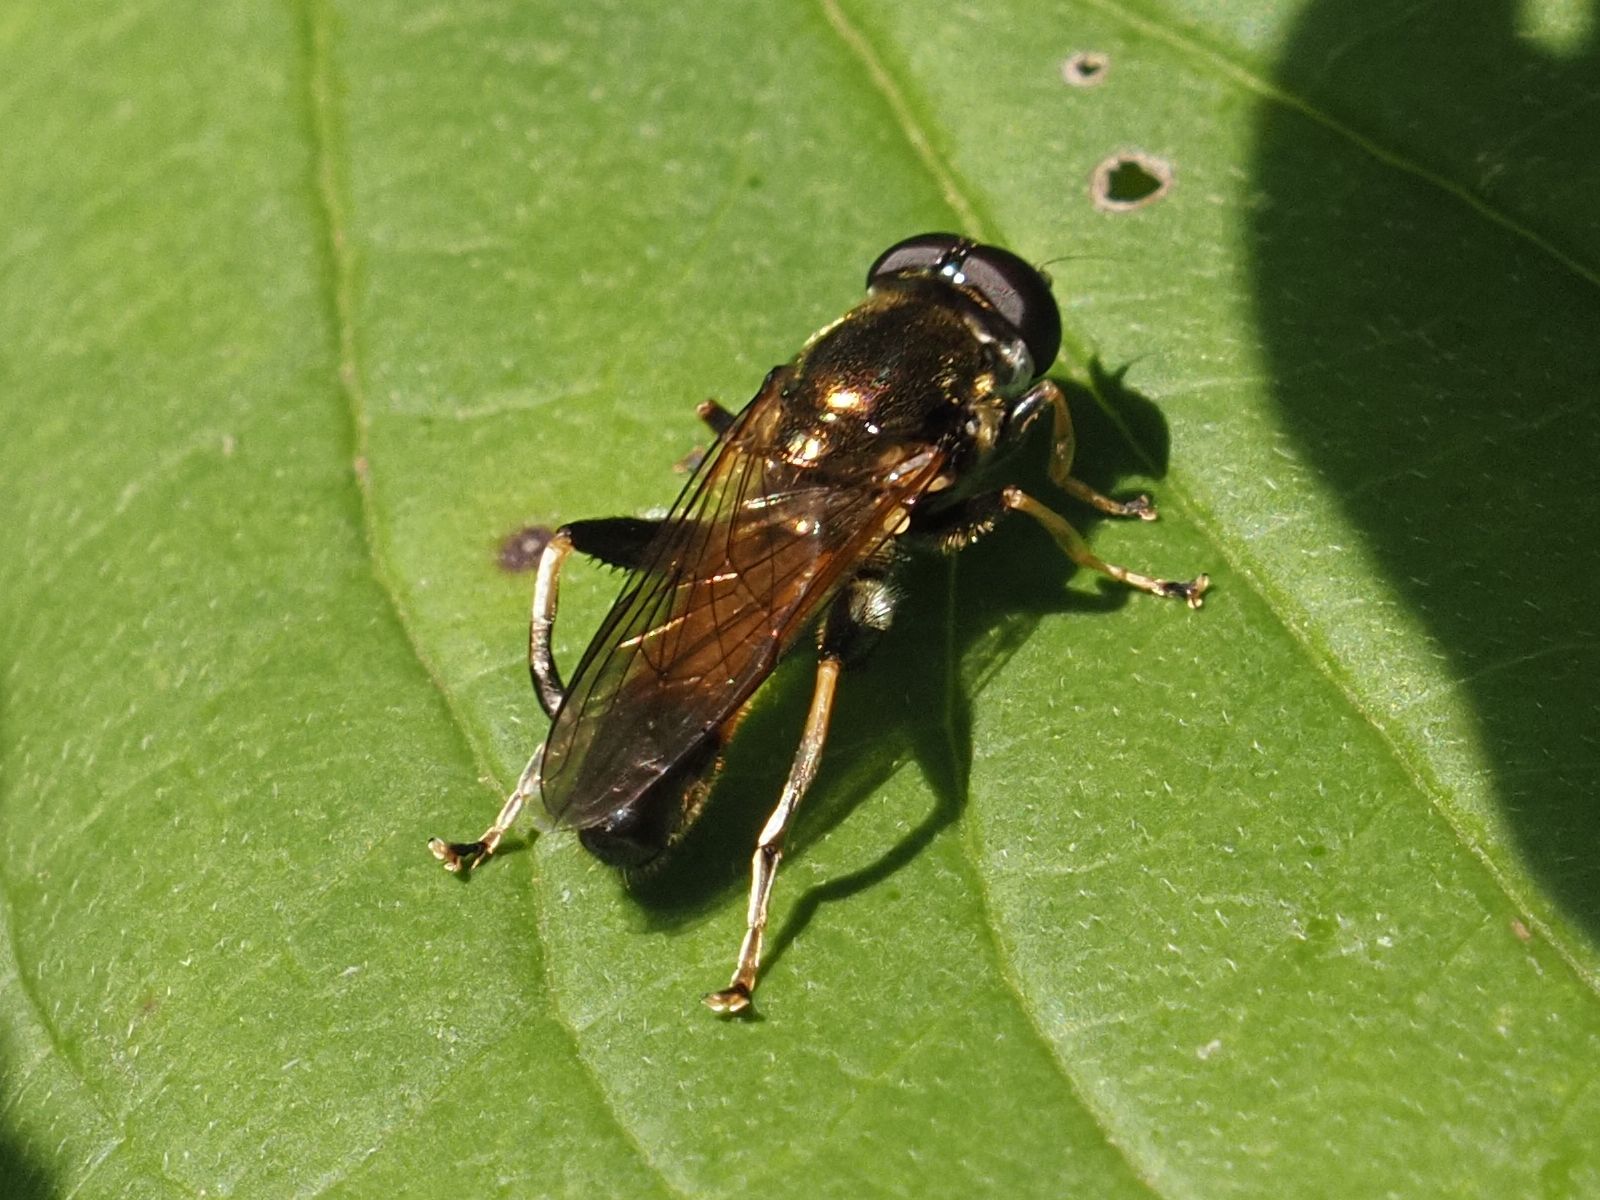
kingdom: Animalia
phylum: Arthropoda
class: Insecta
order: Diptera
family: Syrphidae
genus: Xylota
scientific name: Xylota segnis
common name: Brown-toed forest fly
